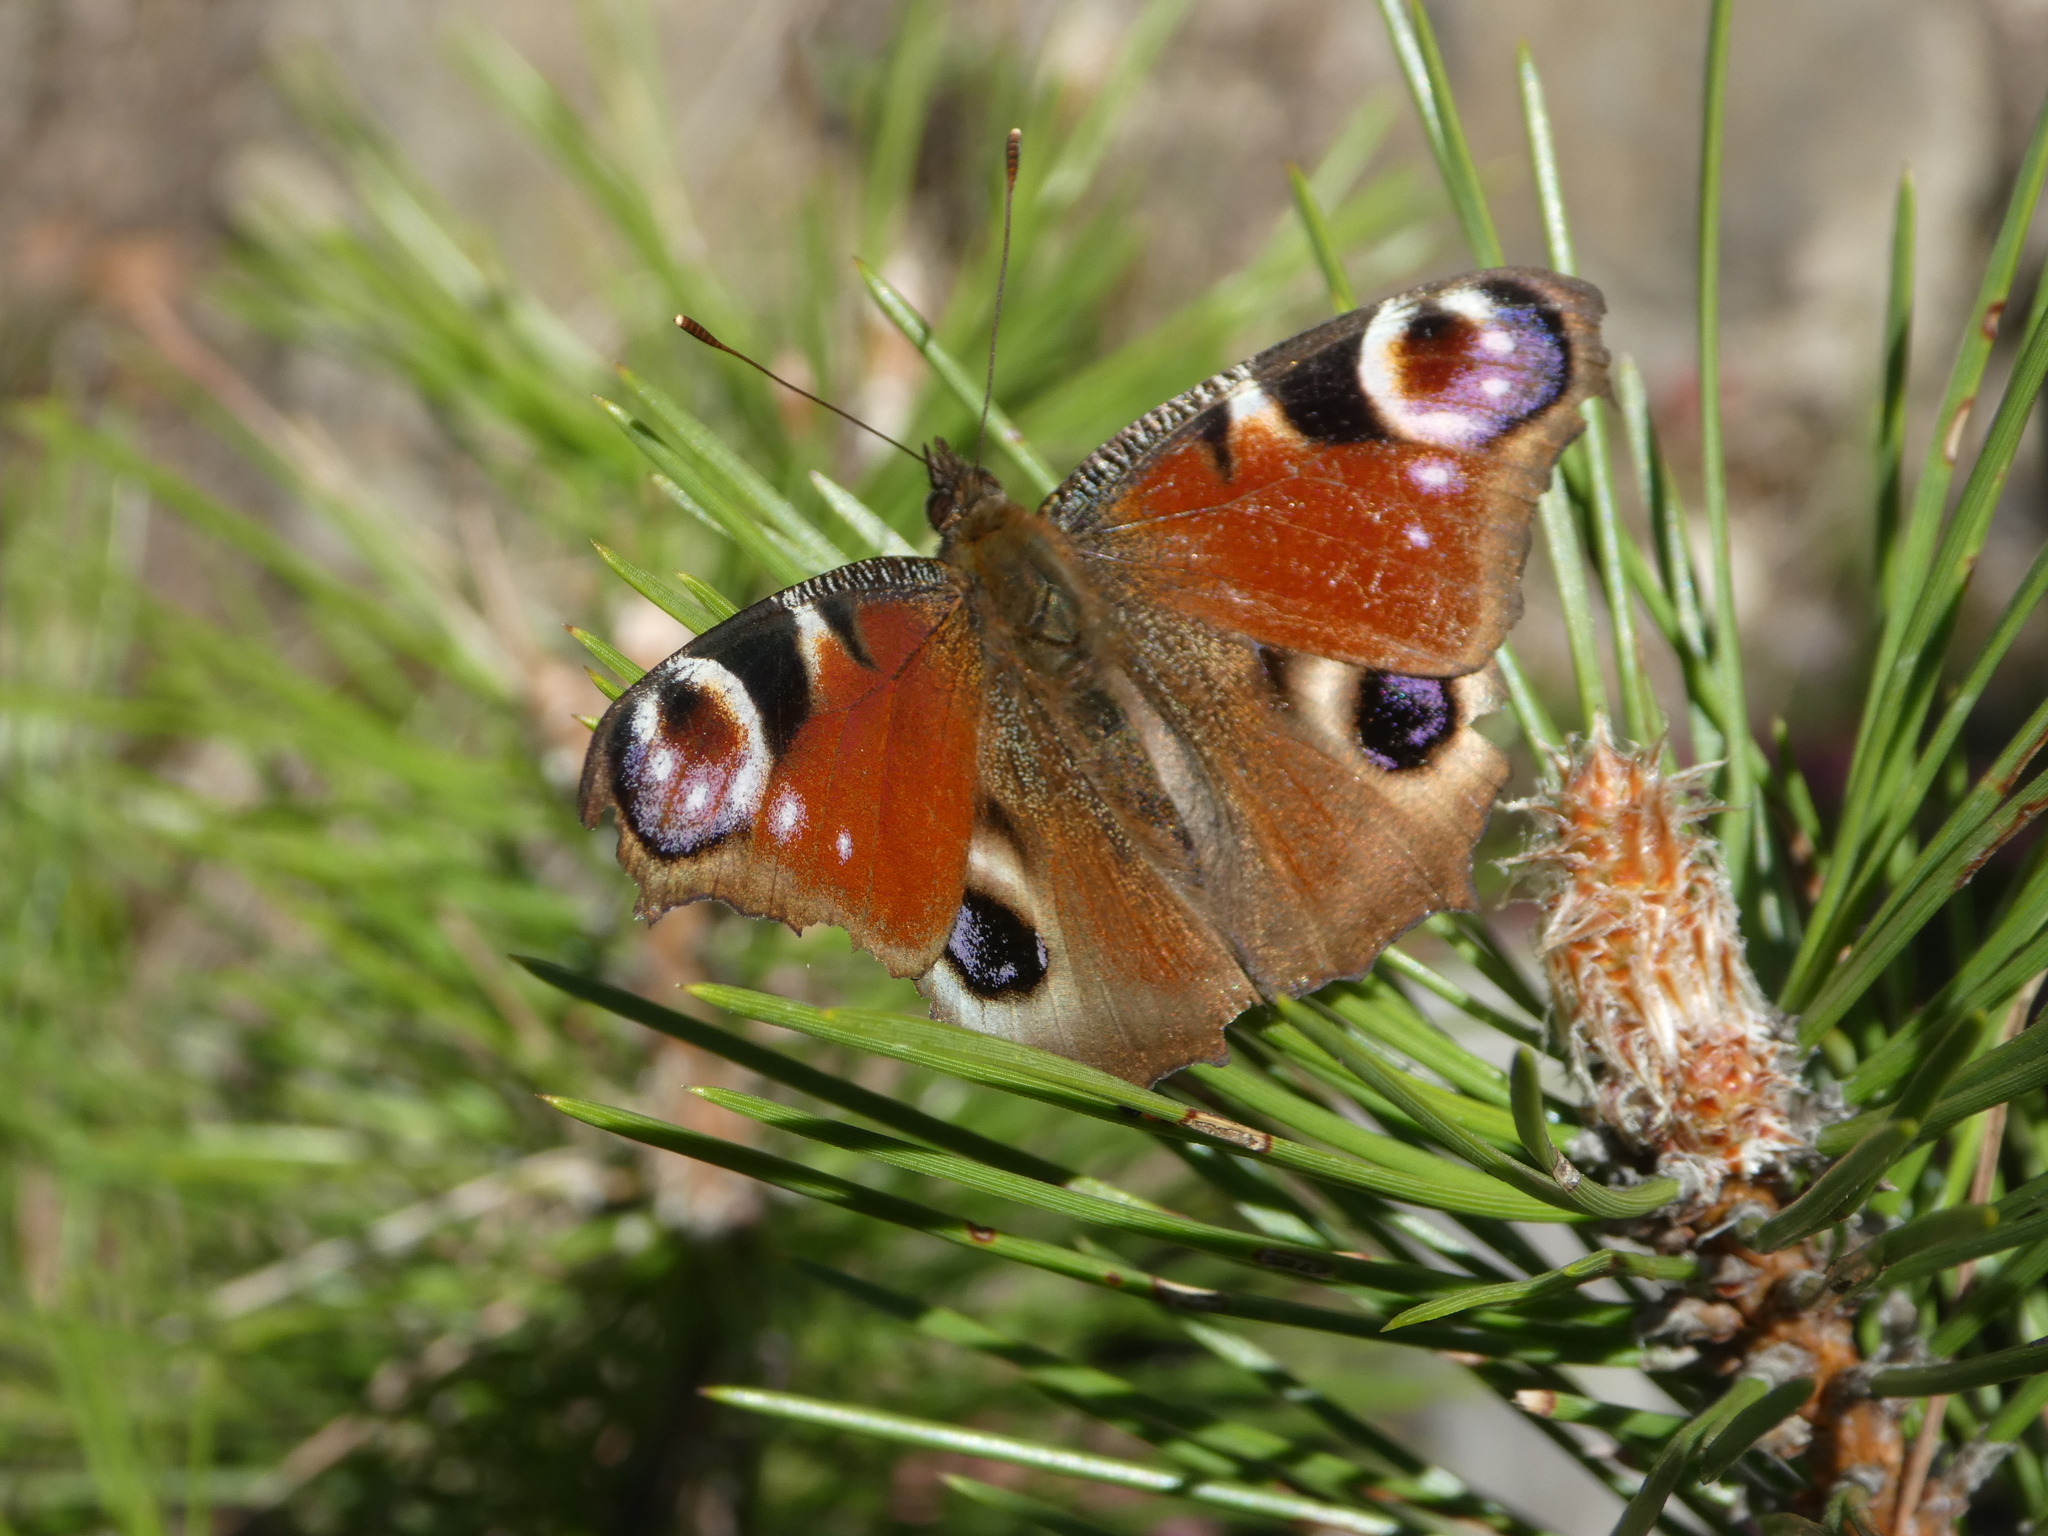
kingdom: Animalia
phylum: Arthropoda
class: Insecta
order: Lepidoptera
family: Nymphalidae
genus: Aglais
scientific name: Aglais io
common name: Peacock
